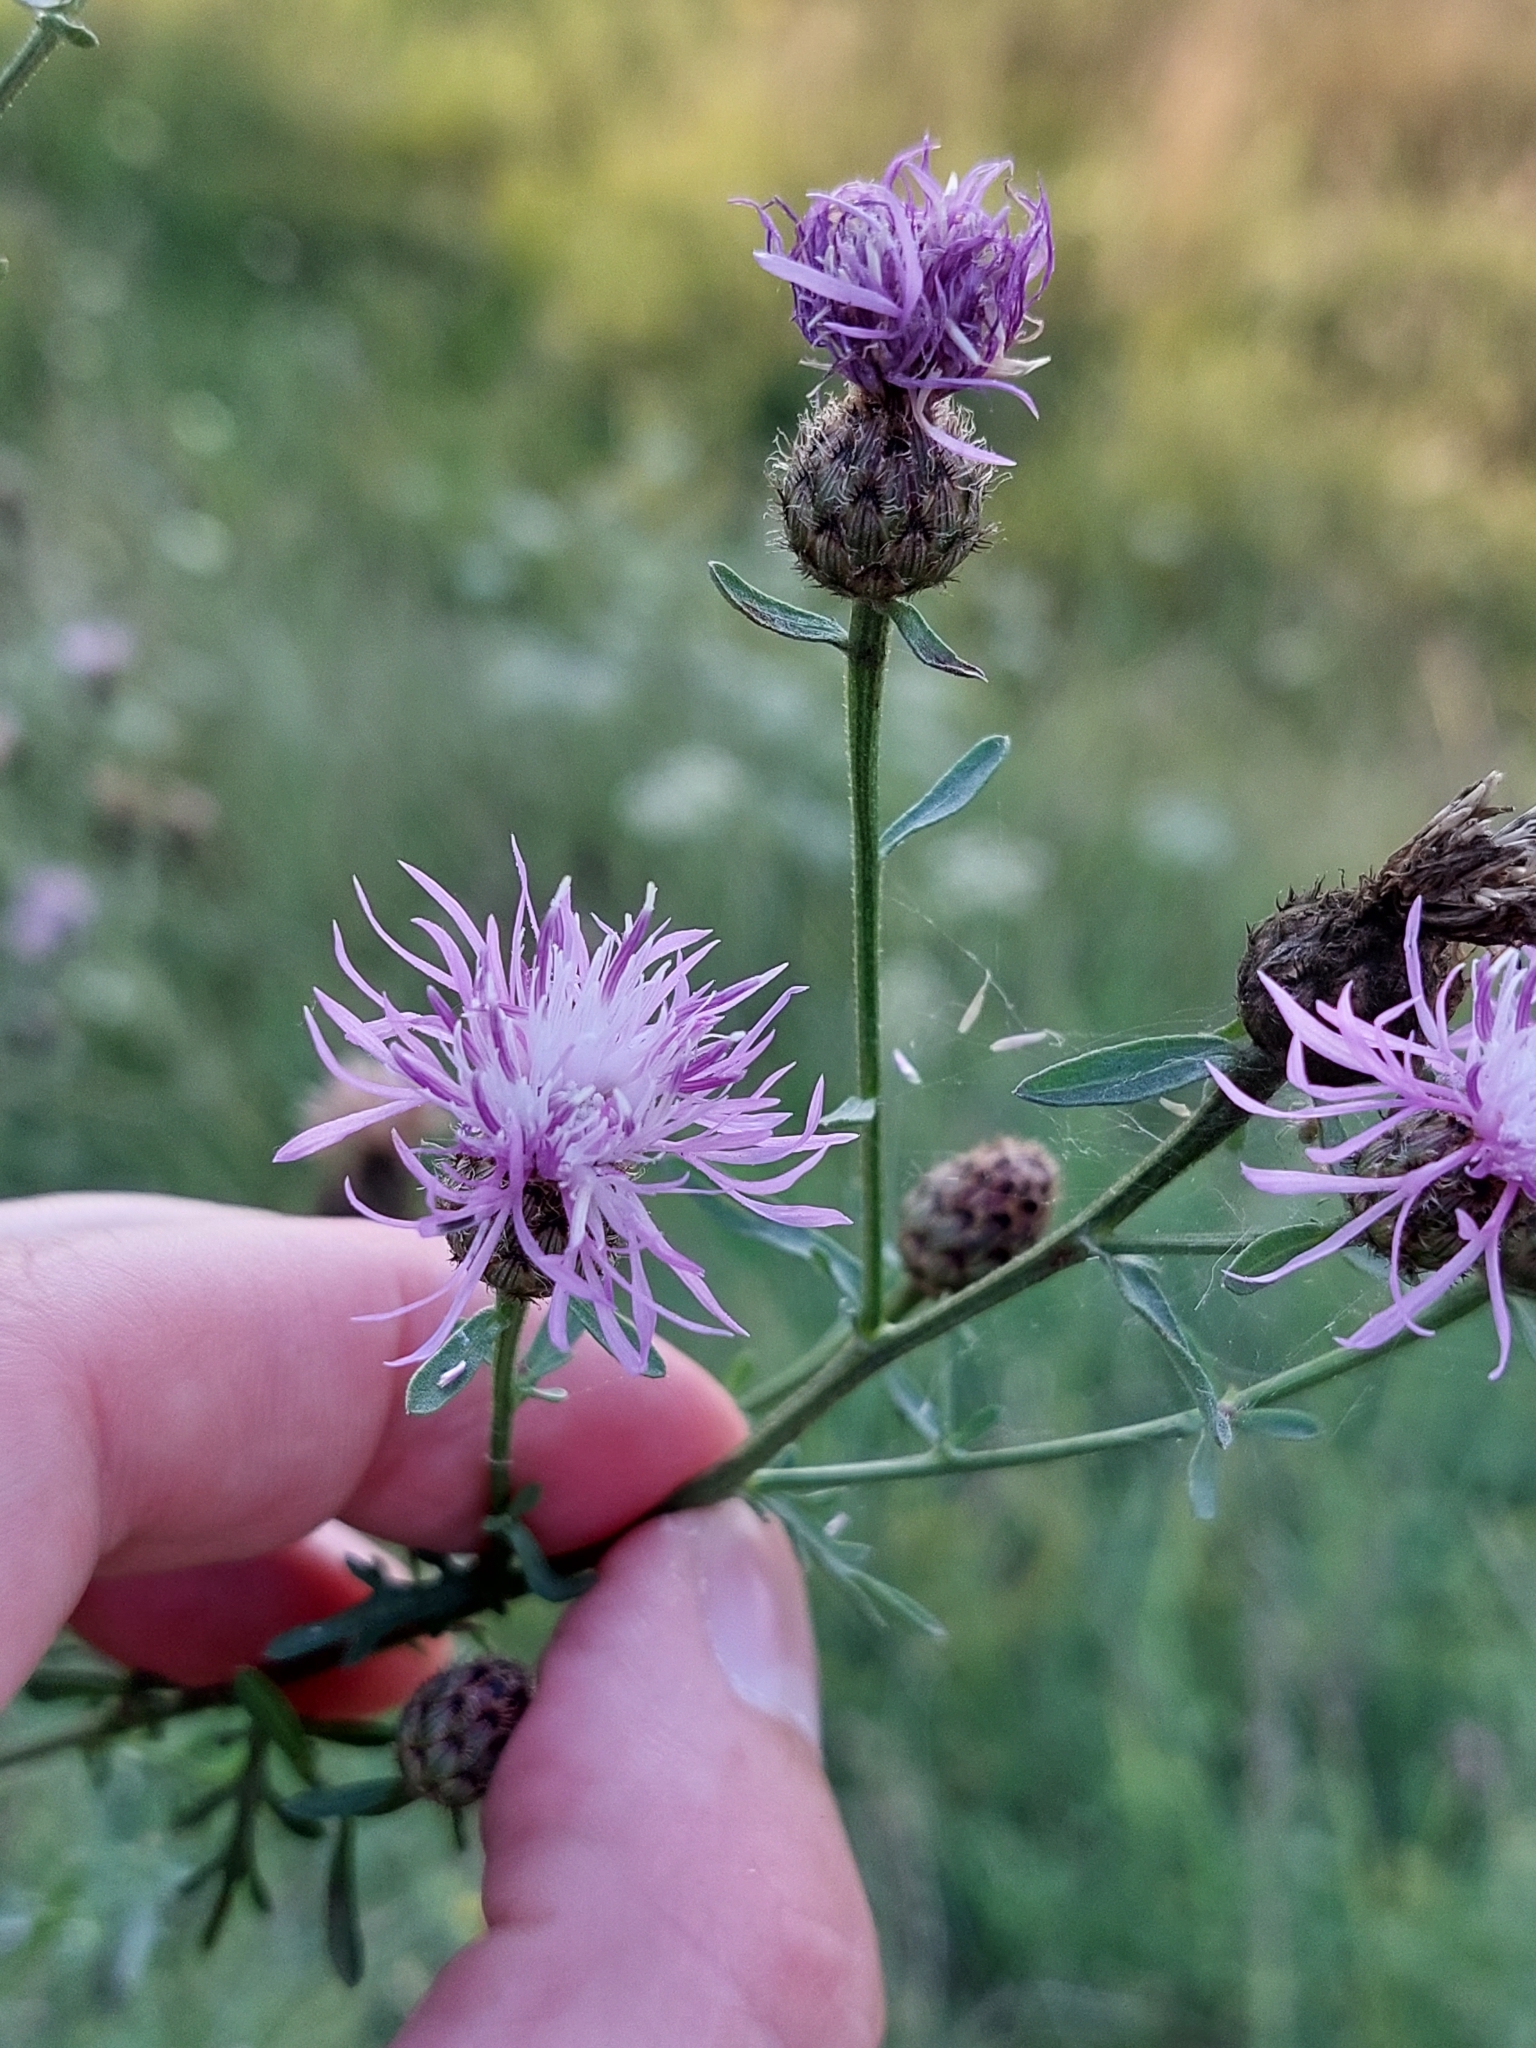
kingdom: Plantae
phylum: Tracheophyta
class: Magnoliopsida
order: Asterales
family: Asteraceae
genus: Centaurea
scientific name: Centaurea stoebe
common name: Spotted knapweed
